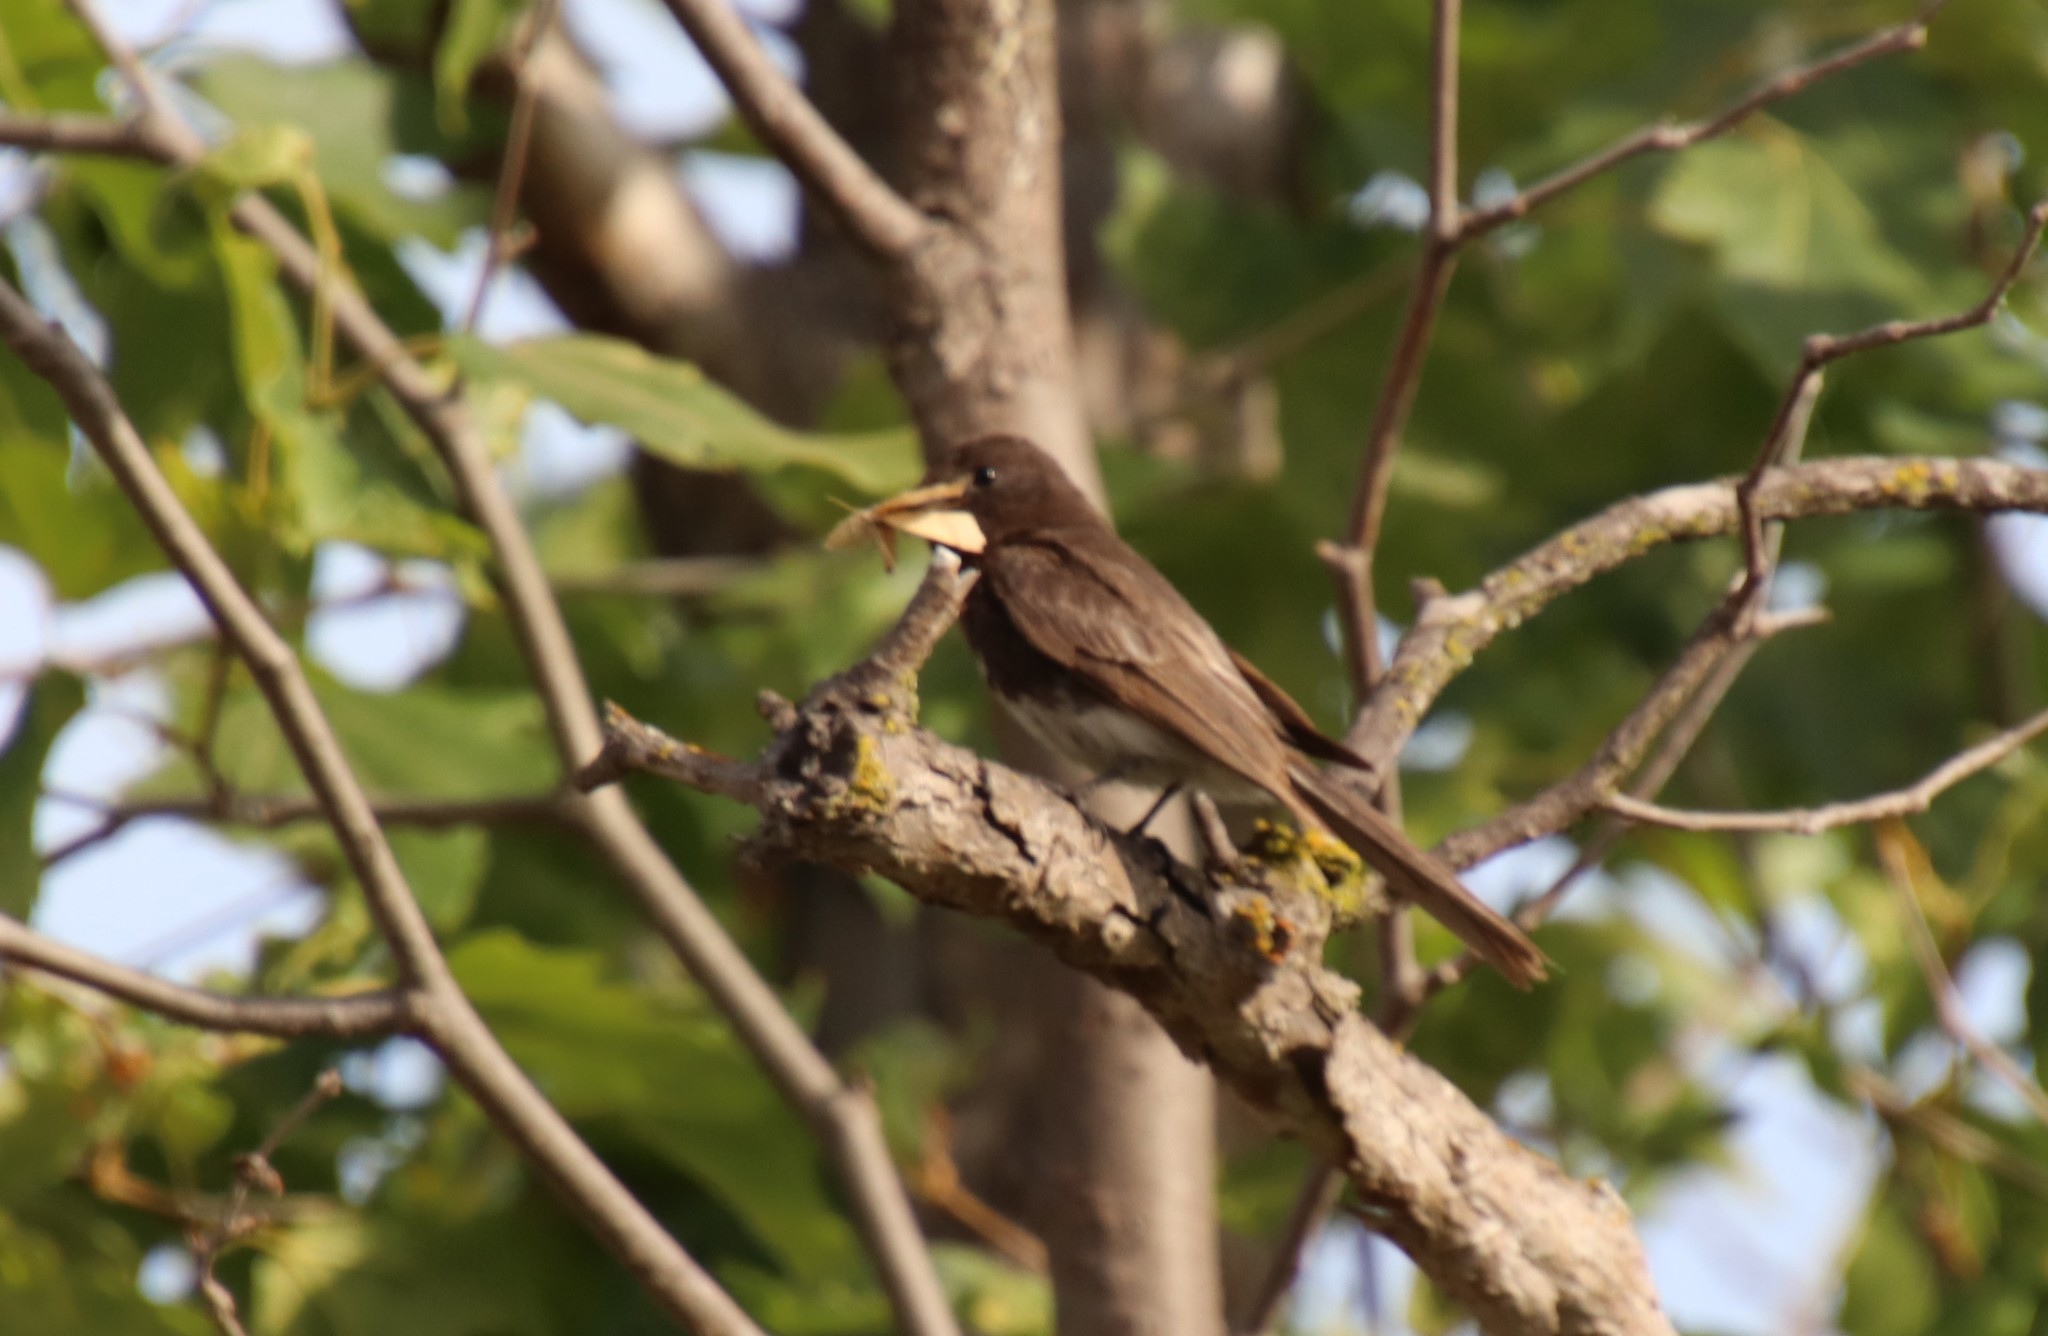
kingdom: Animalia
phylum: Chordata
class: Aves
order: Passeriformes
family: Tyrannidae
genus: Sayornis
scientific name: Sayornis nigricans
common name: Black phoebe
